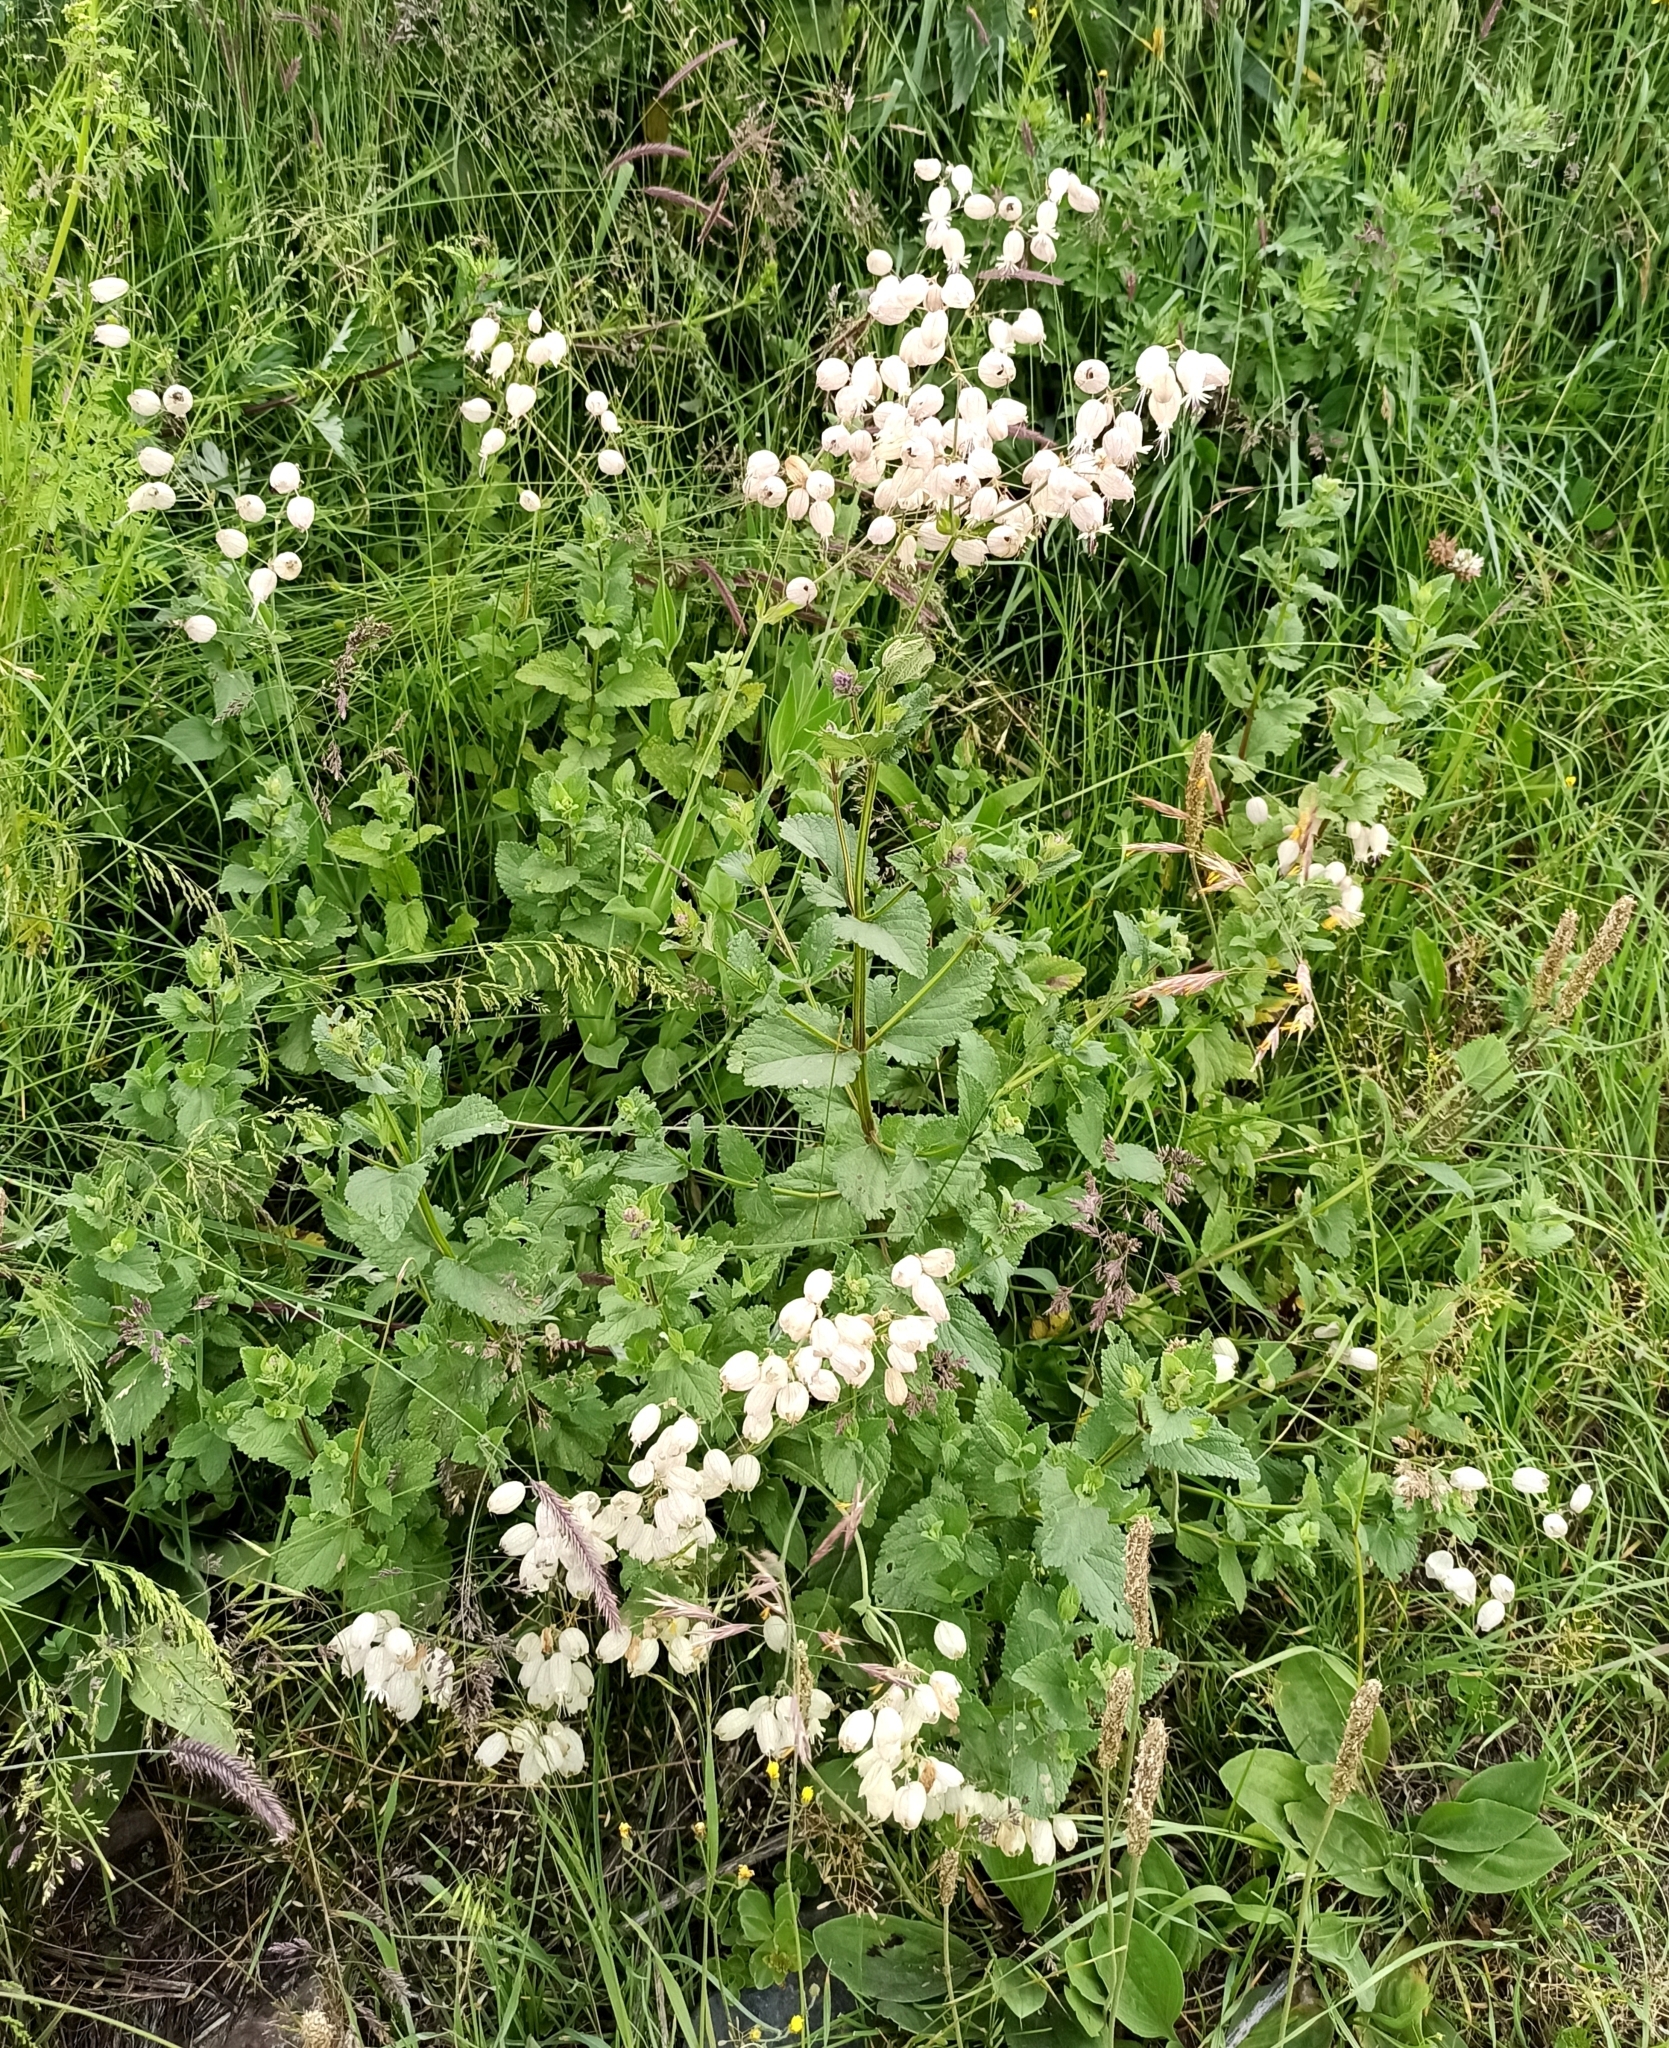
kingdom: Plantae
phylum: Tracheophyta
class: Magnoliopsida
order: Caryophyllales
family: Caryophyllaceae
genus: Silene
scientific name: Silene vulgaris
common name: Bladder campion
